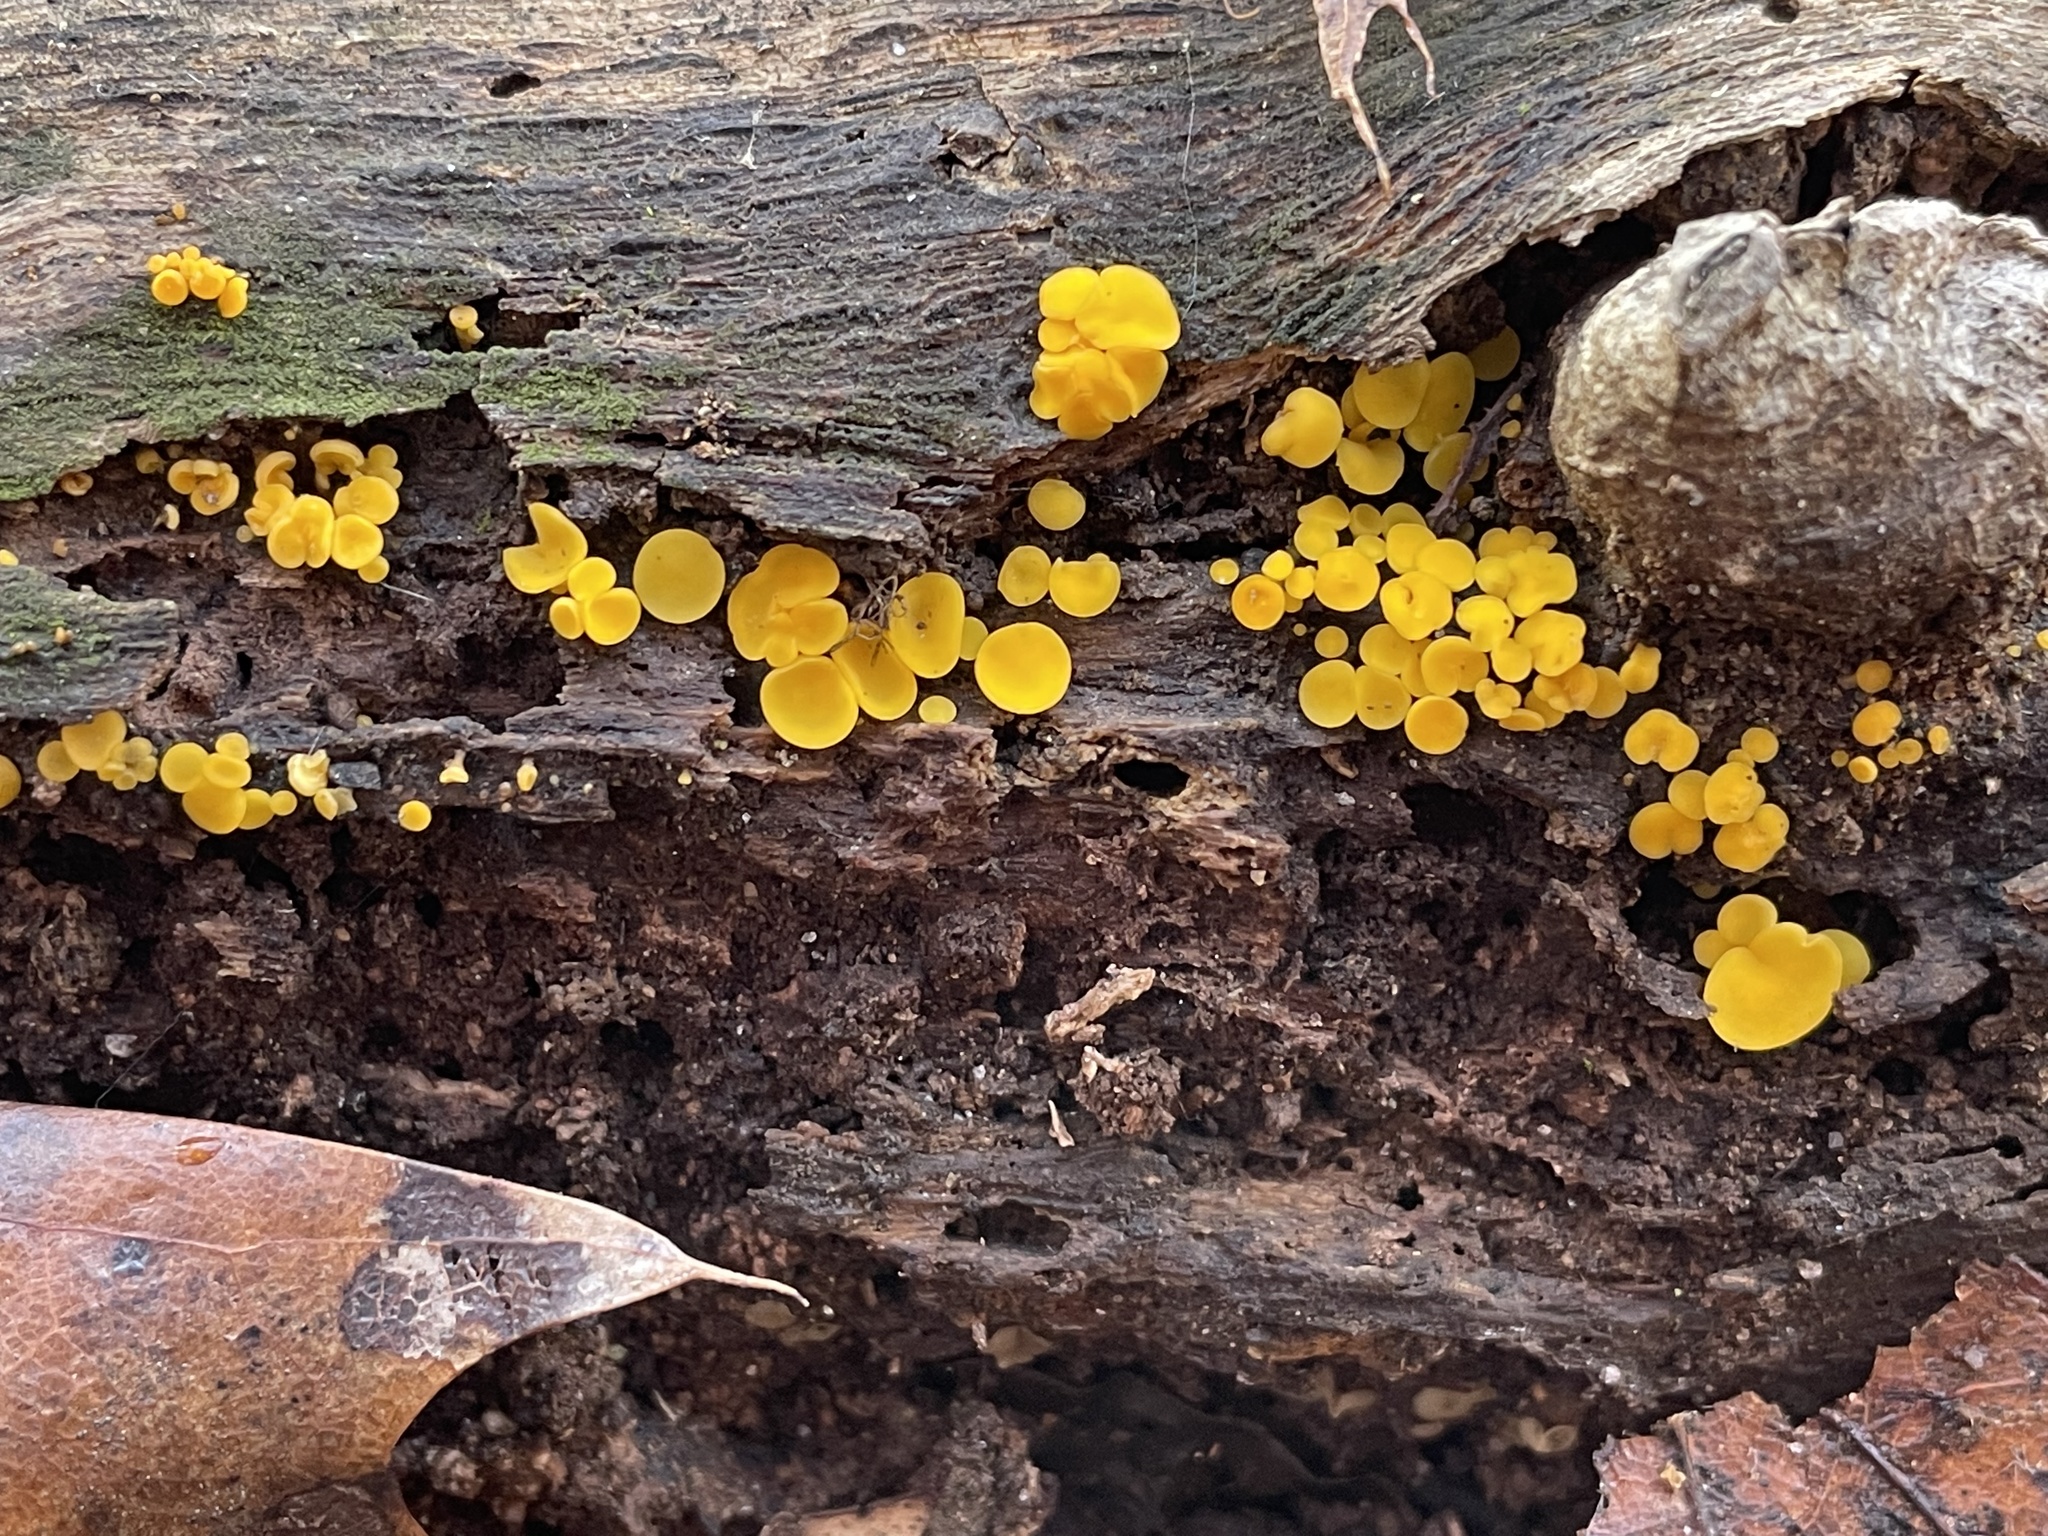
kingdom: Fungi
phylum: Ascomycota
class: Leotiomycetes
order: Helotiales
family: Pezizellaceae
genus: Calycina
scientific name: Calycina citrina
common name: Yellow fairy cups
